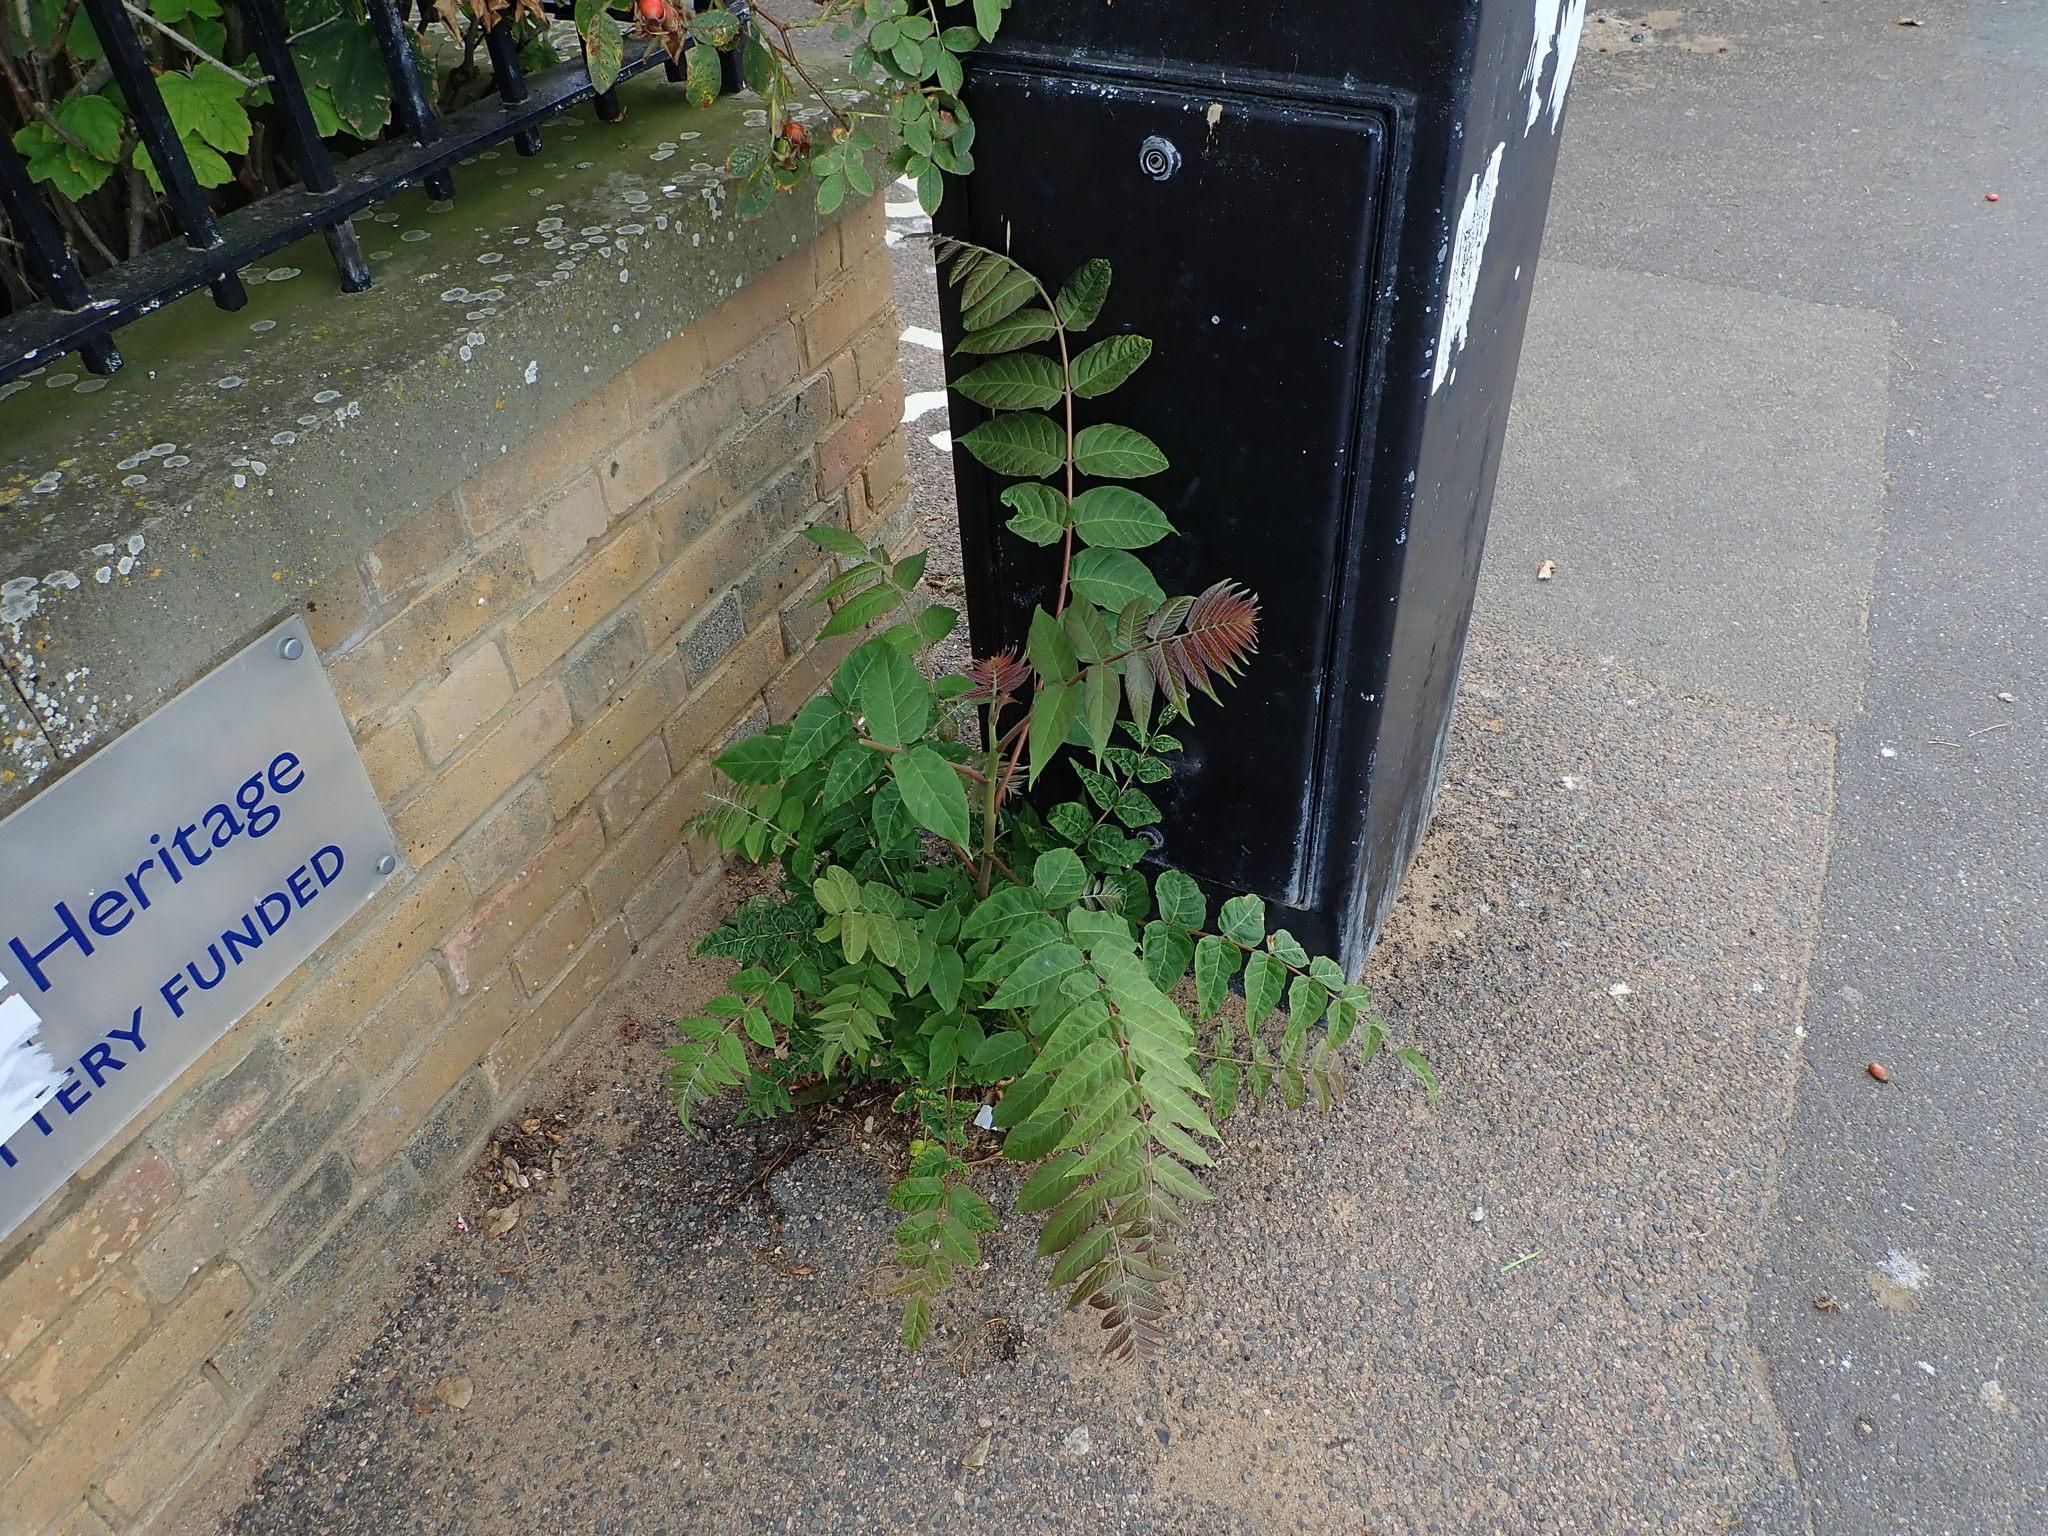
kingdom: Plantae
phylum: Tracheophyta
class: Magnoliopsida
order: Sapindales
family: Simaroubaceae
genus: Ailanthus
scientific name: Ailanthus altissima
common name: Tree-of-heaven
